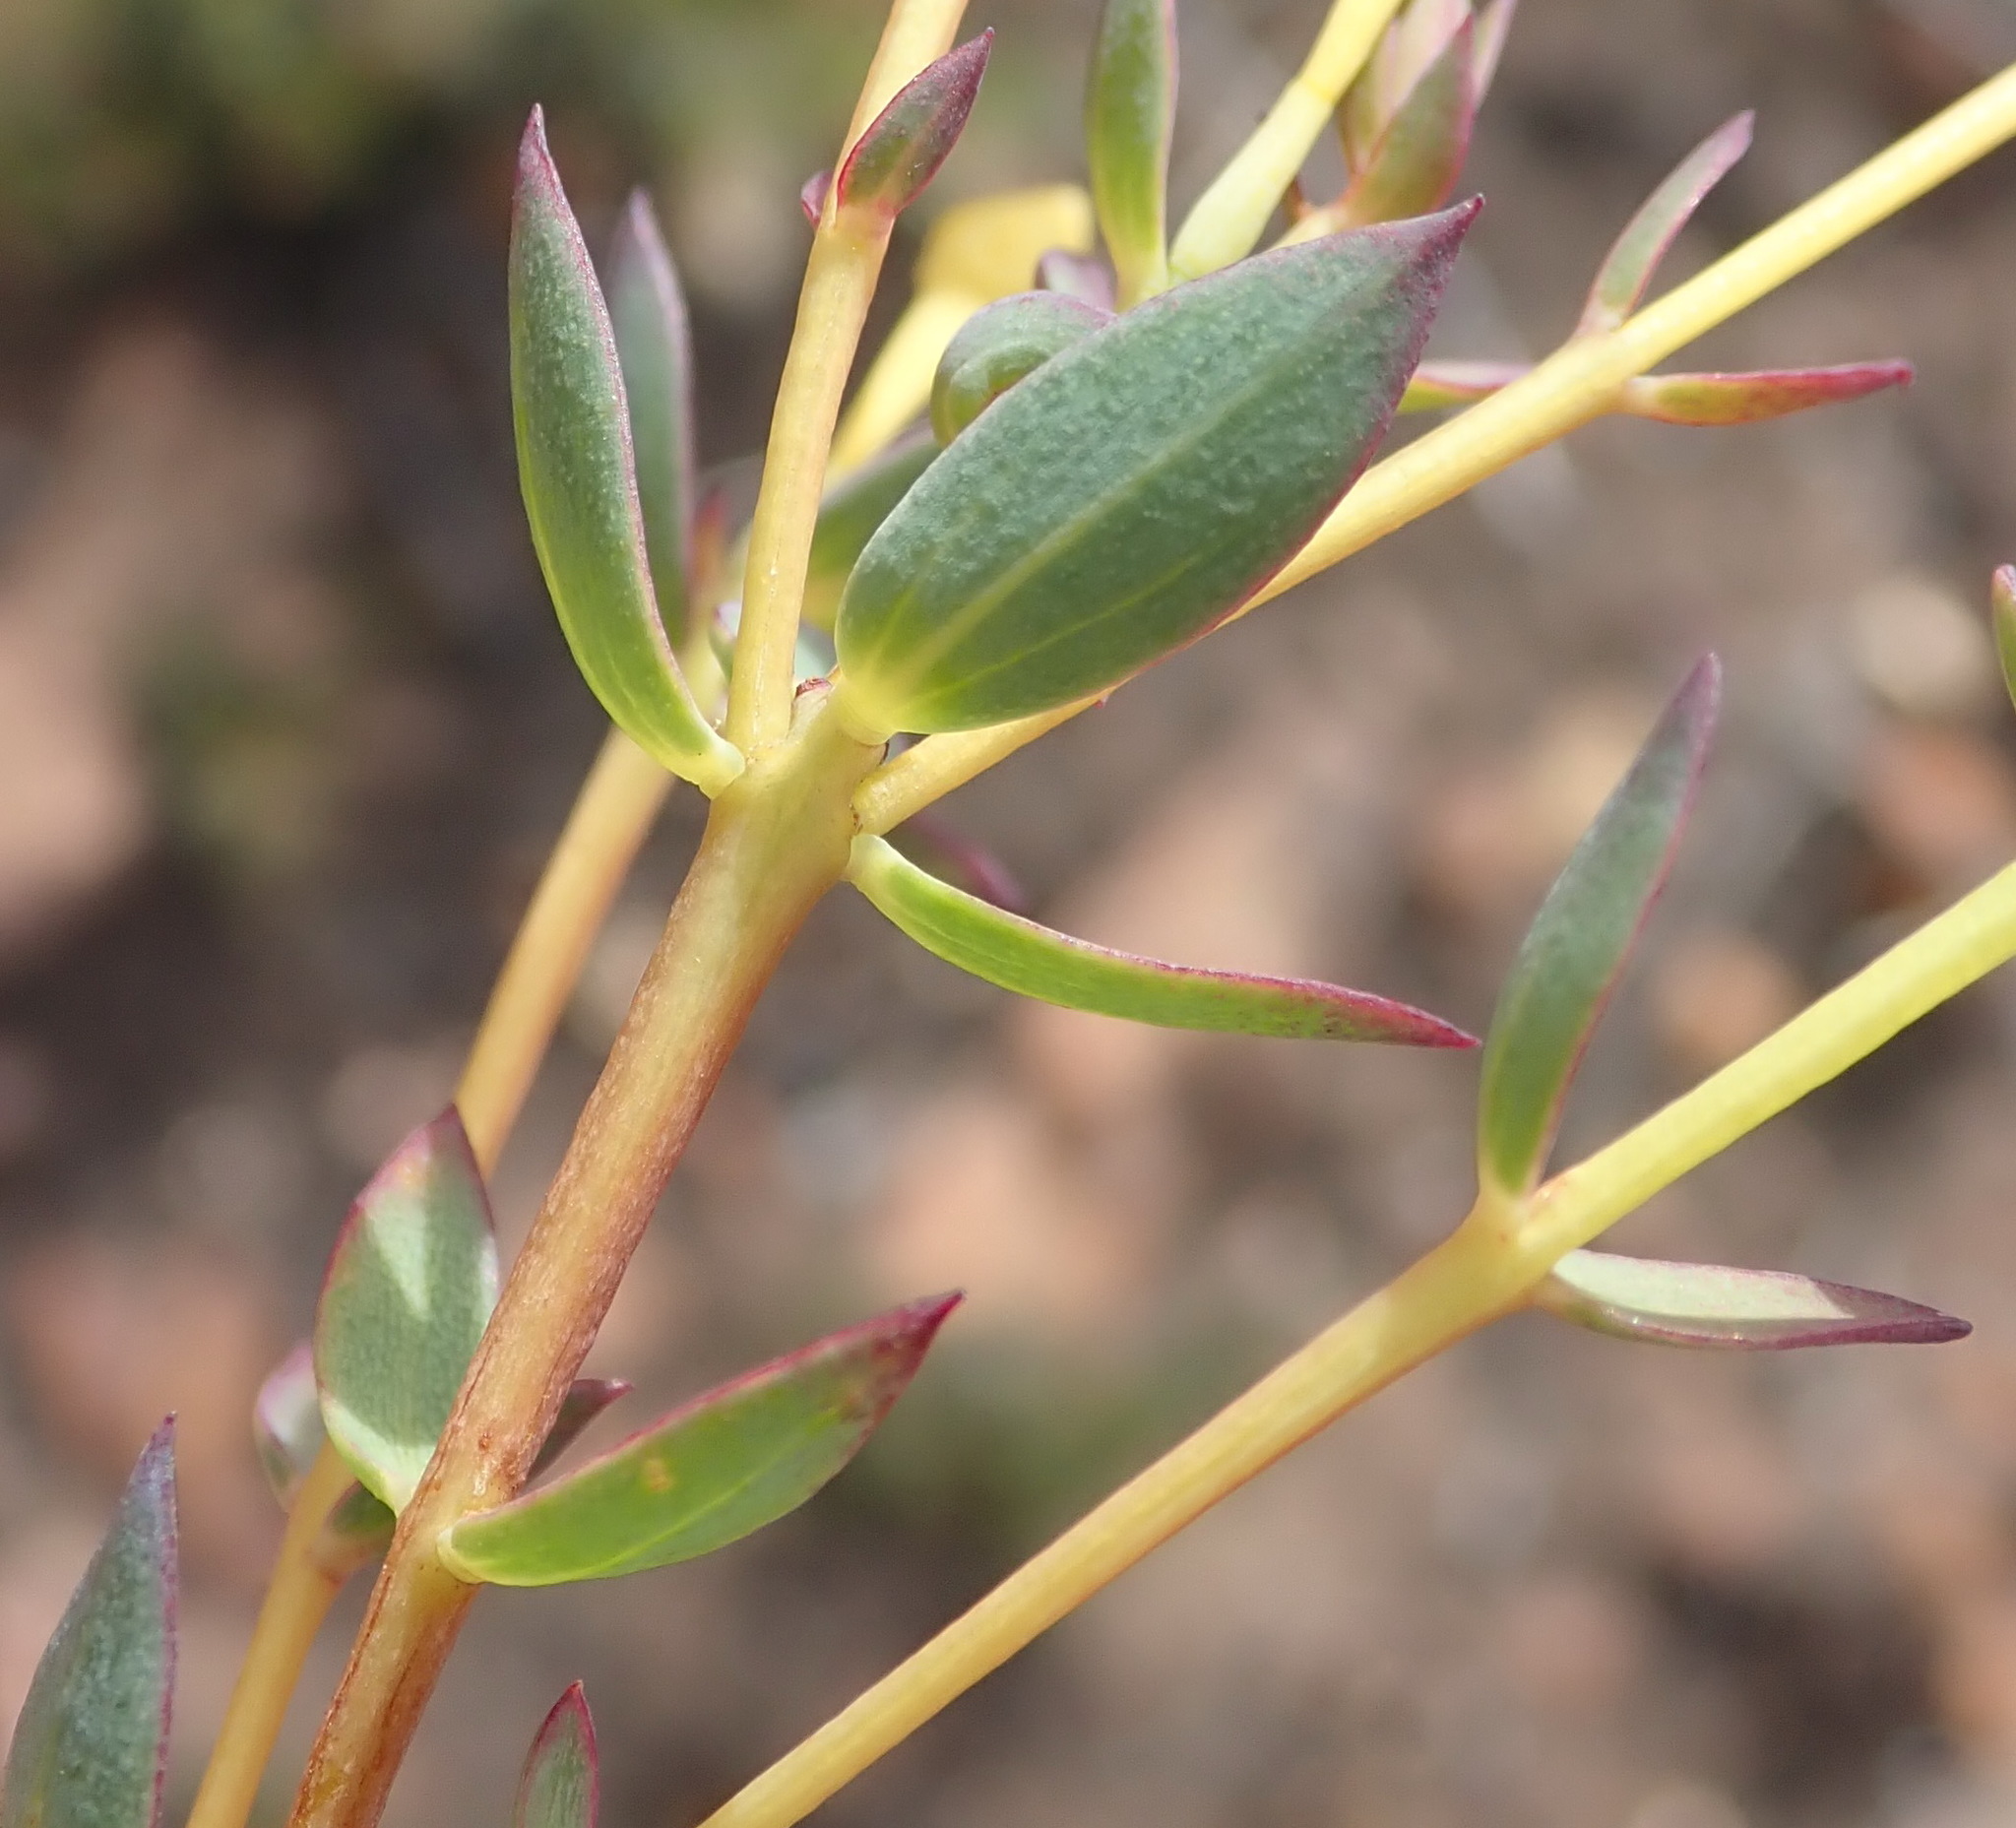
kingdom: Plantae
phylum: Tracheophyta
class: Magnoliopsida
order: Malvales
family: Thymelaeaceae
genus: Gnidia
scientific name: Gnidia juniperifolia
